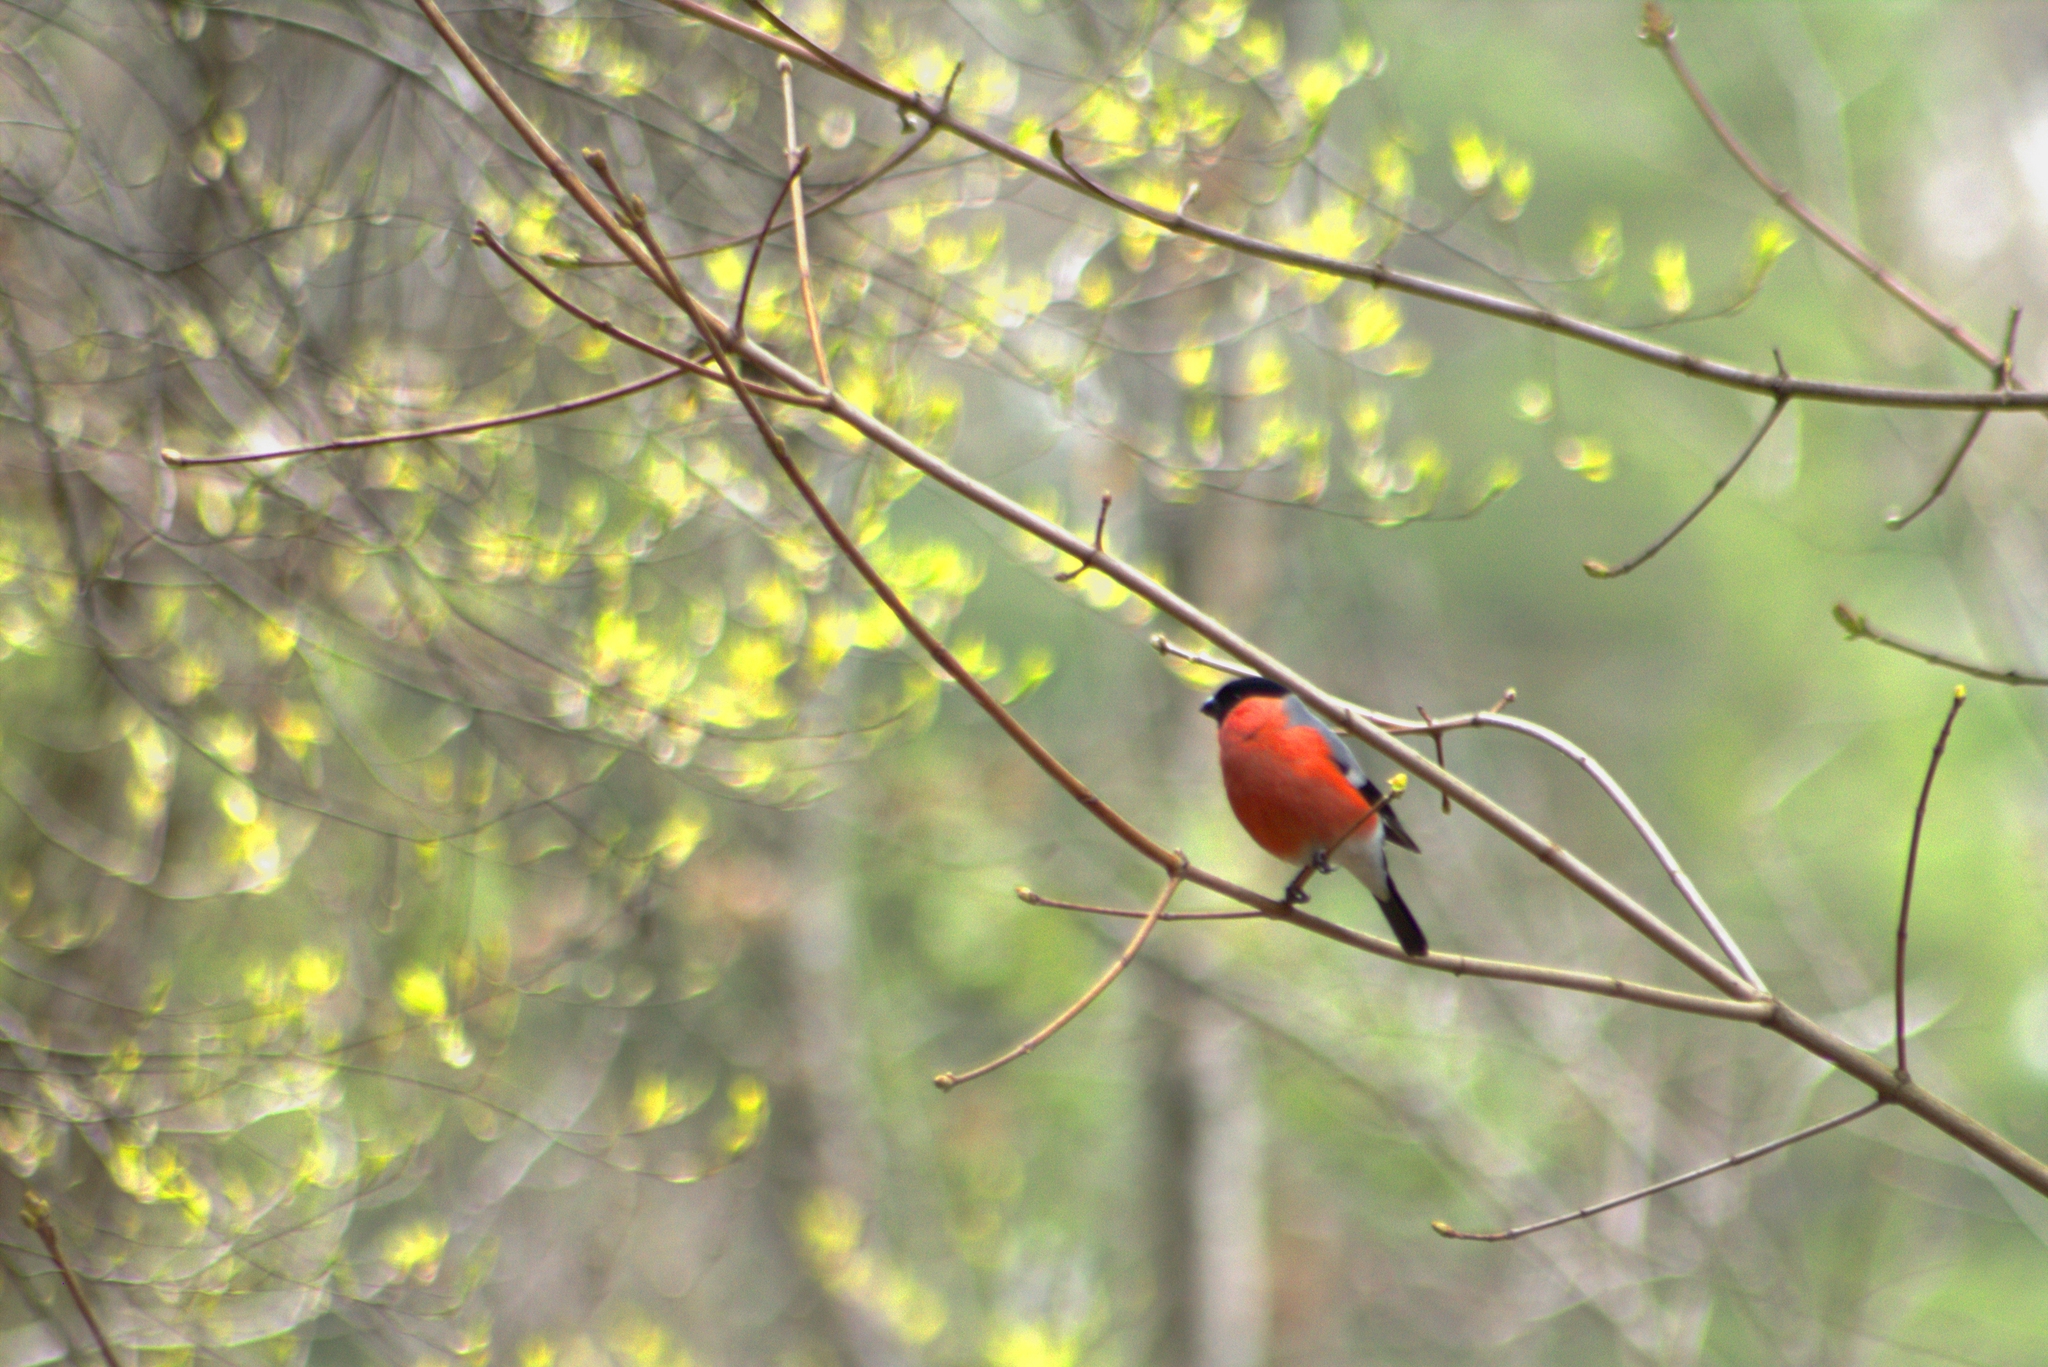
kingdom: Animalia
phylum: Chordata
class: Aves
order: Passeriformes
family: Fringillidae
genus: Pyrrhula
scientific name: Pyrrhula pyrrhula
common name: Eurasian bullfinch
